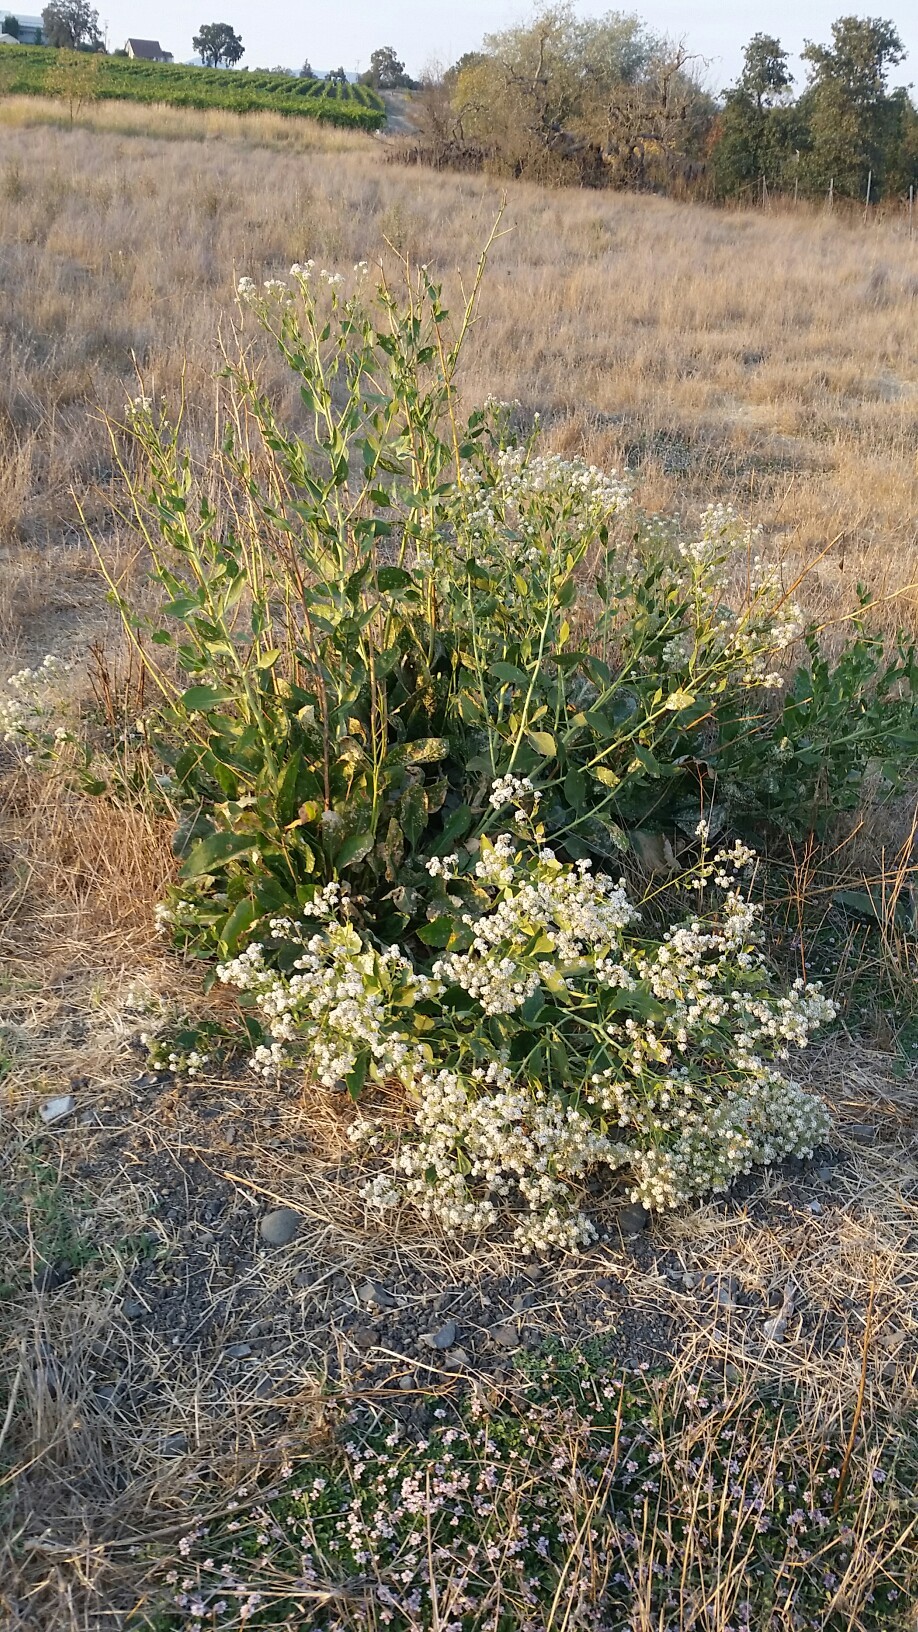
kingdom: Plantae
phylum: Tracheophyta
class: Magnoliopsida
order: Brassicales
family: Brassicaceae
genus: Lepidium
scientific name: Lepidium latifolium
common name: Dittander
